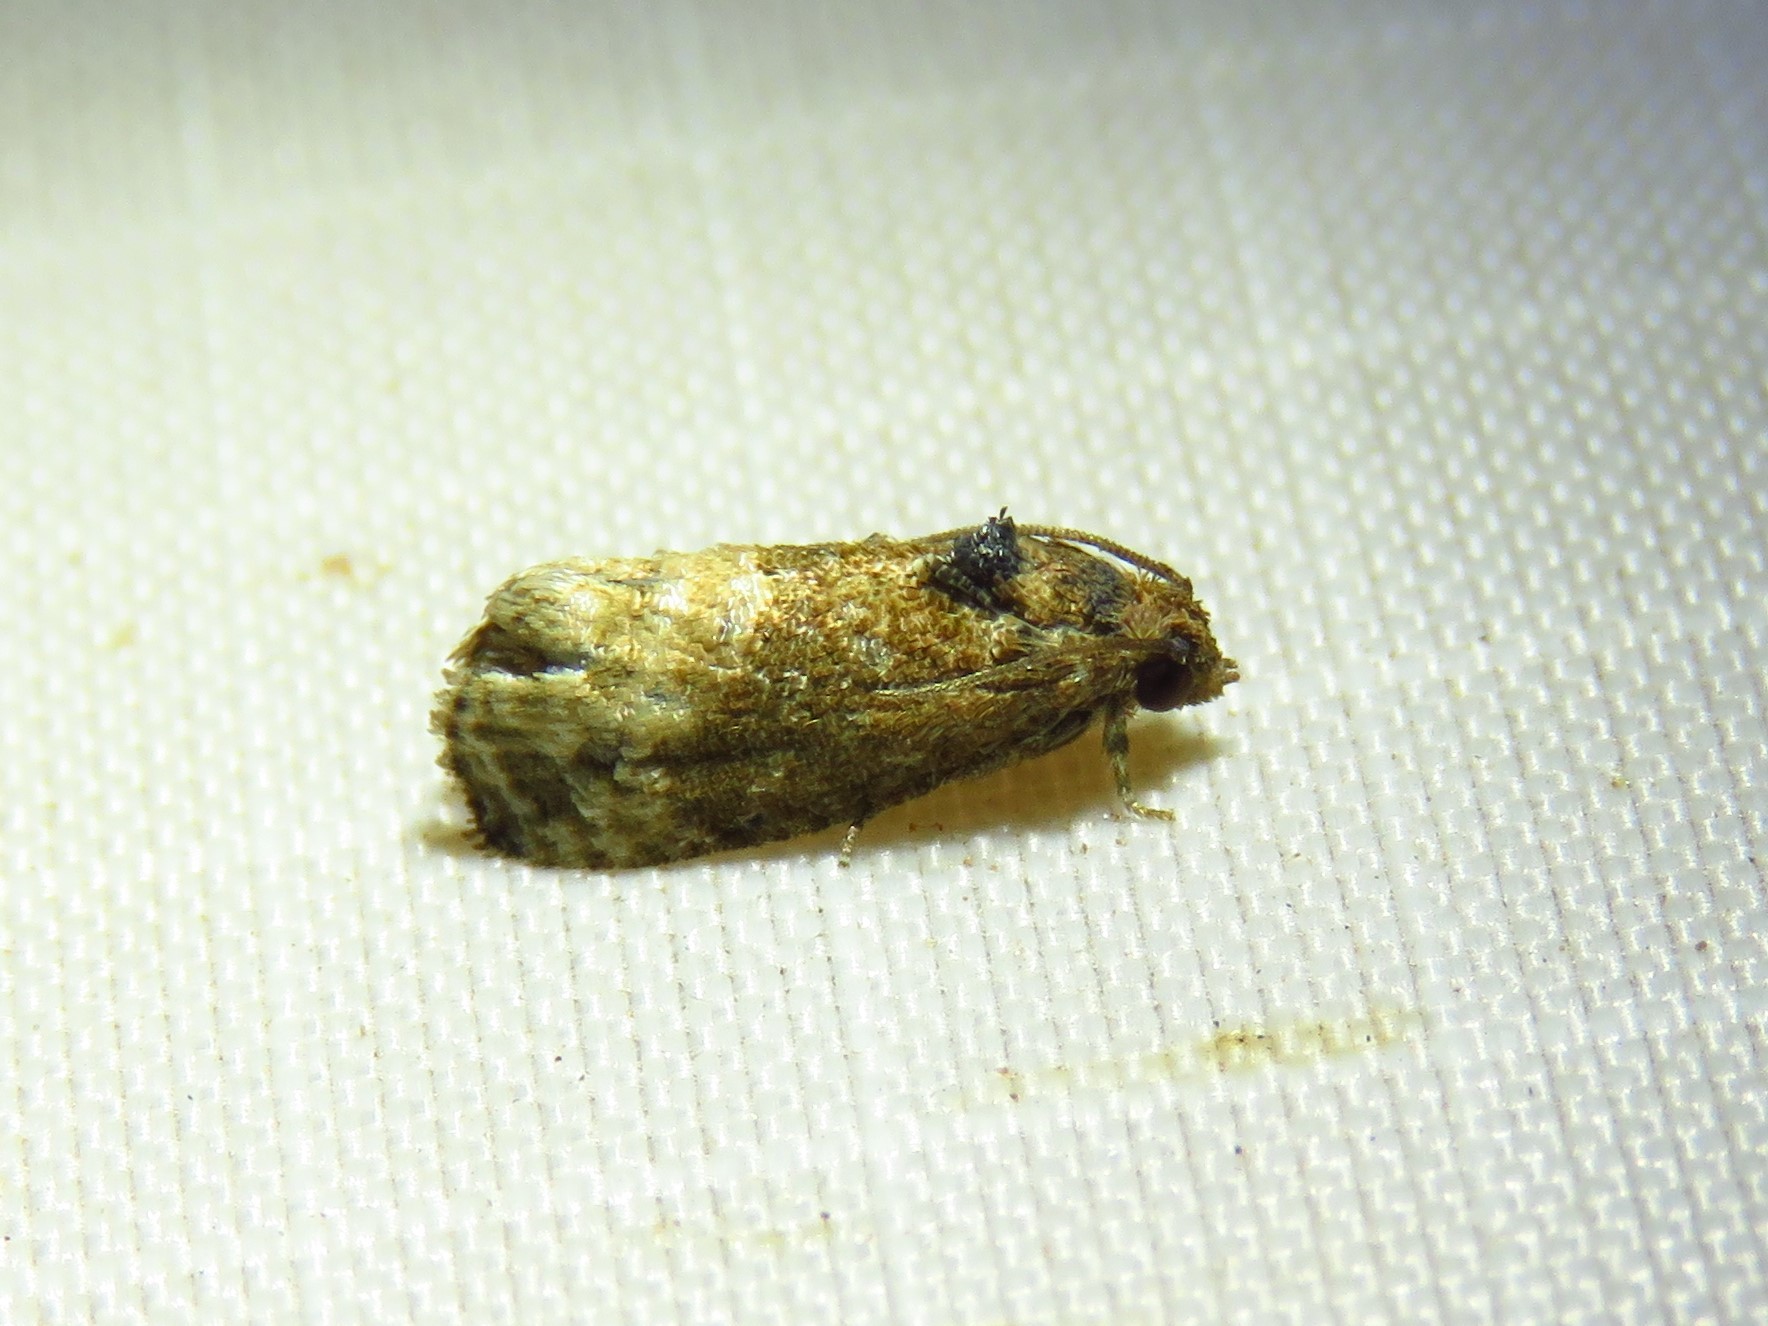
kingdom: Animalia
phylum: Arthropoda
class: Insecta
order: Lepidoptera
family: Tortricidae
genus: Ecdytolopha
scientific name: Ecdytolopha mana
